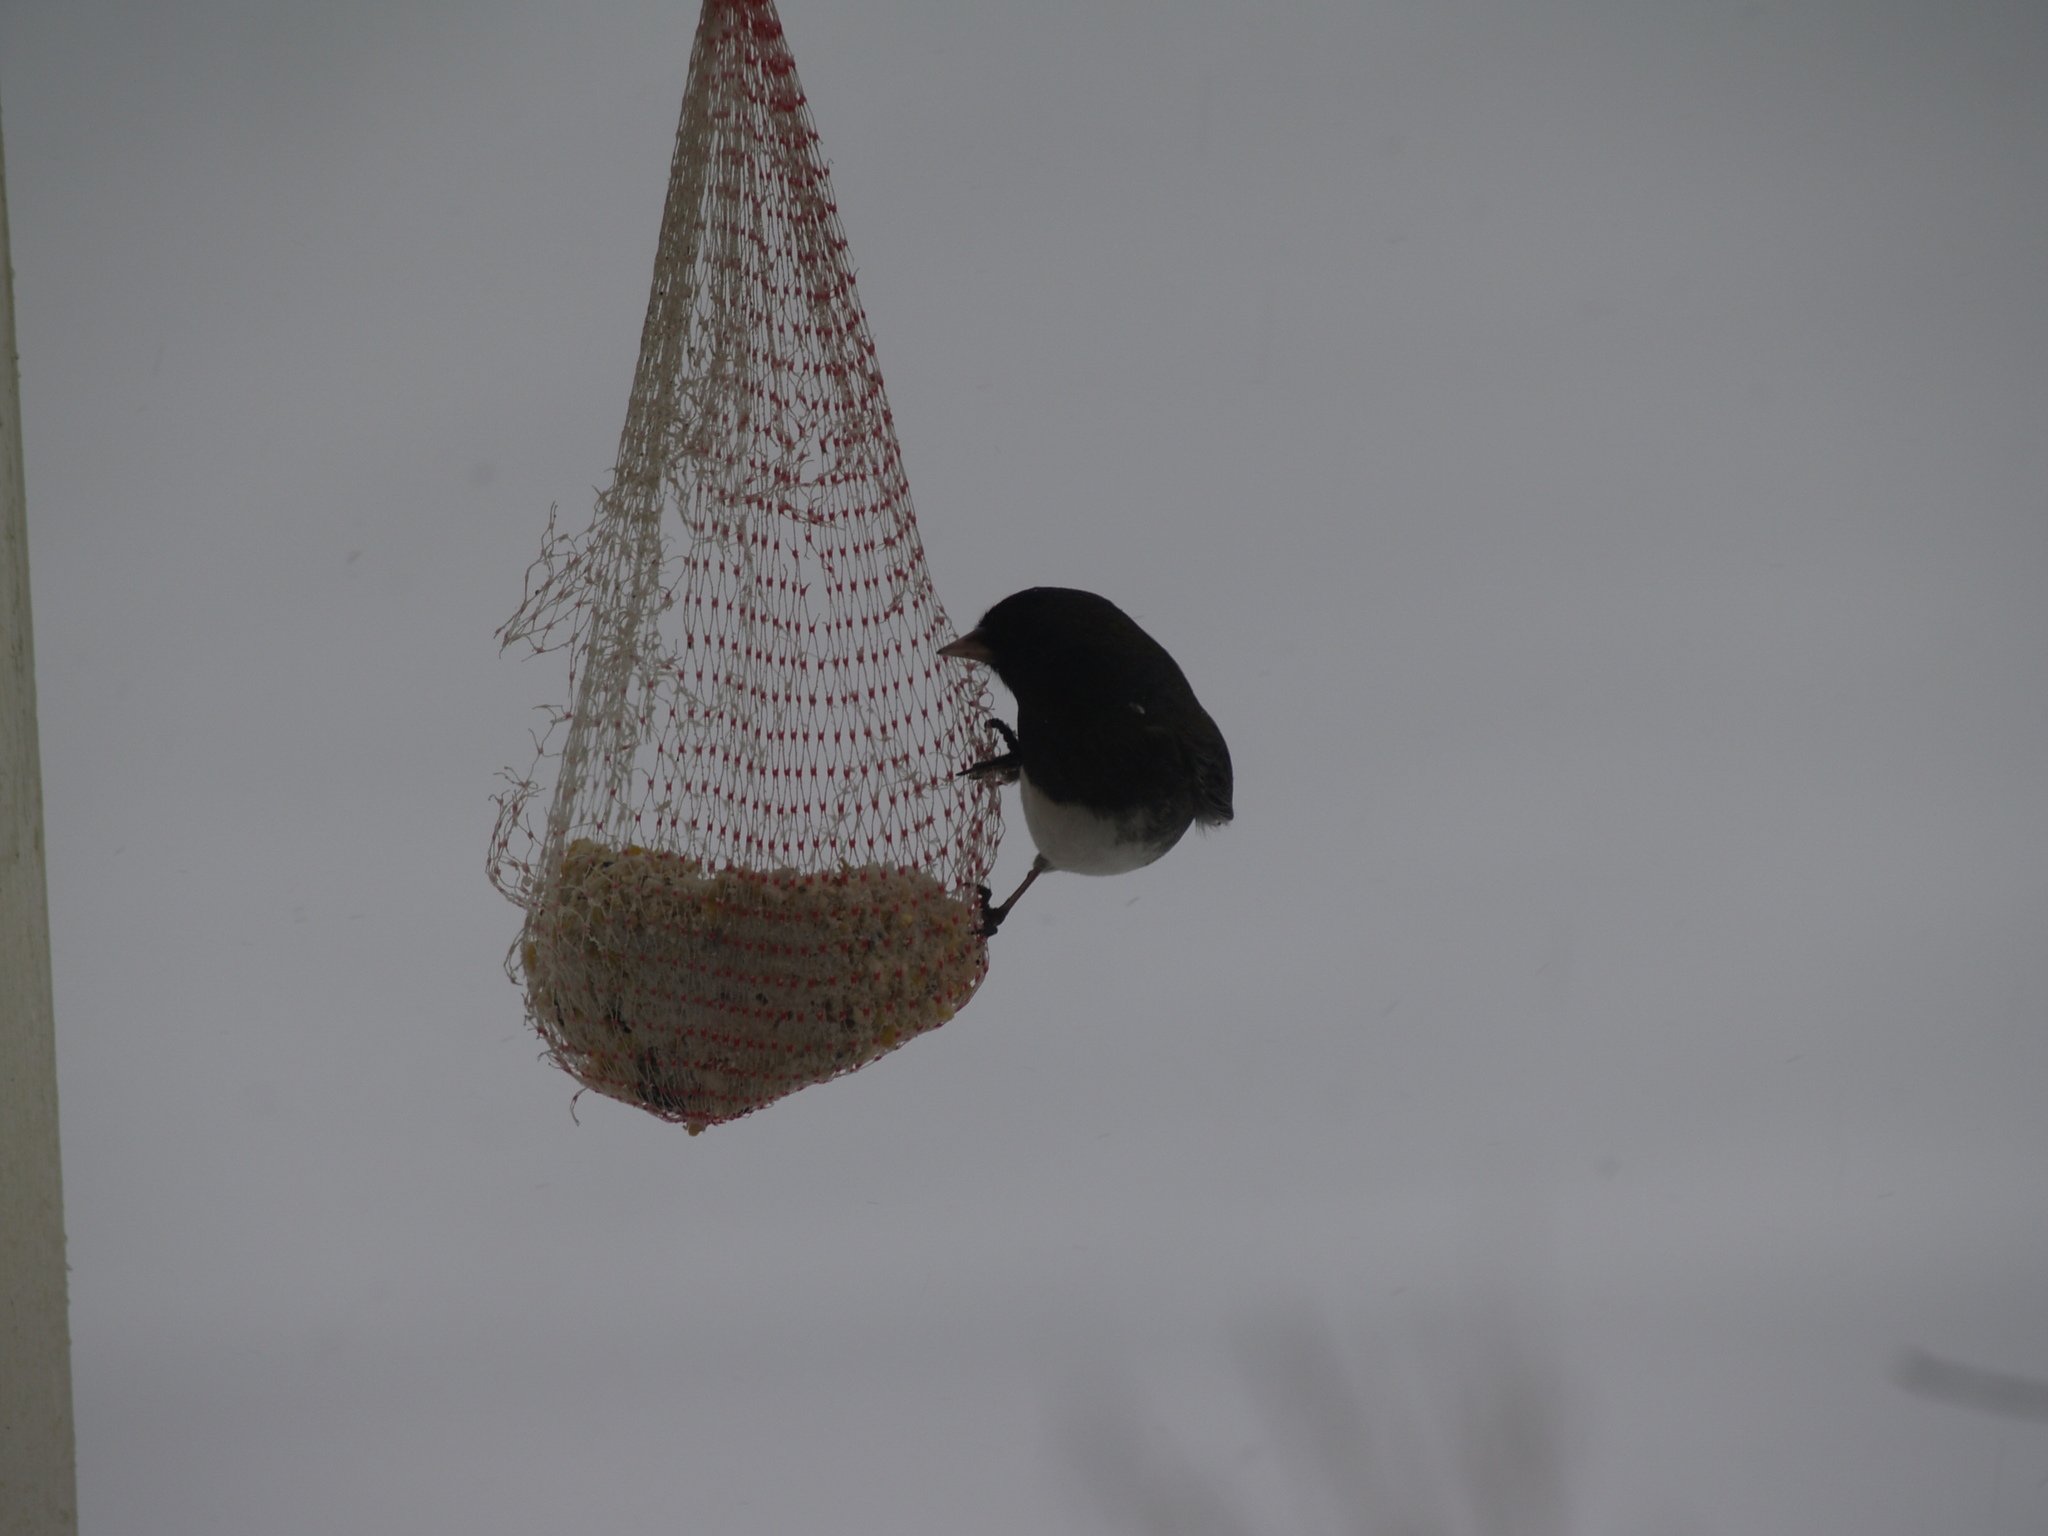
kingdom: Animalia
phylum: Chordata
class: Aves
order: Passeriformes
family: Passerellidae
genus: Junco
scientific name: Junco hyemalis
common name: Dark-eyed junco
